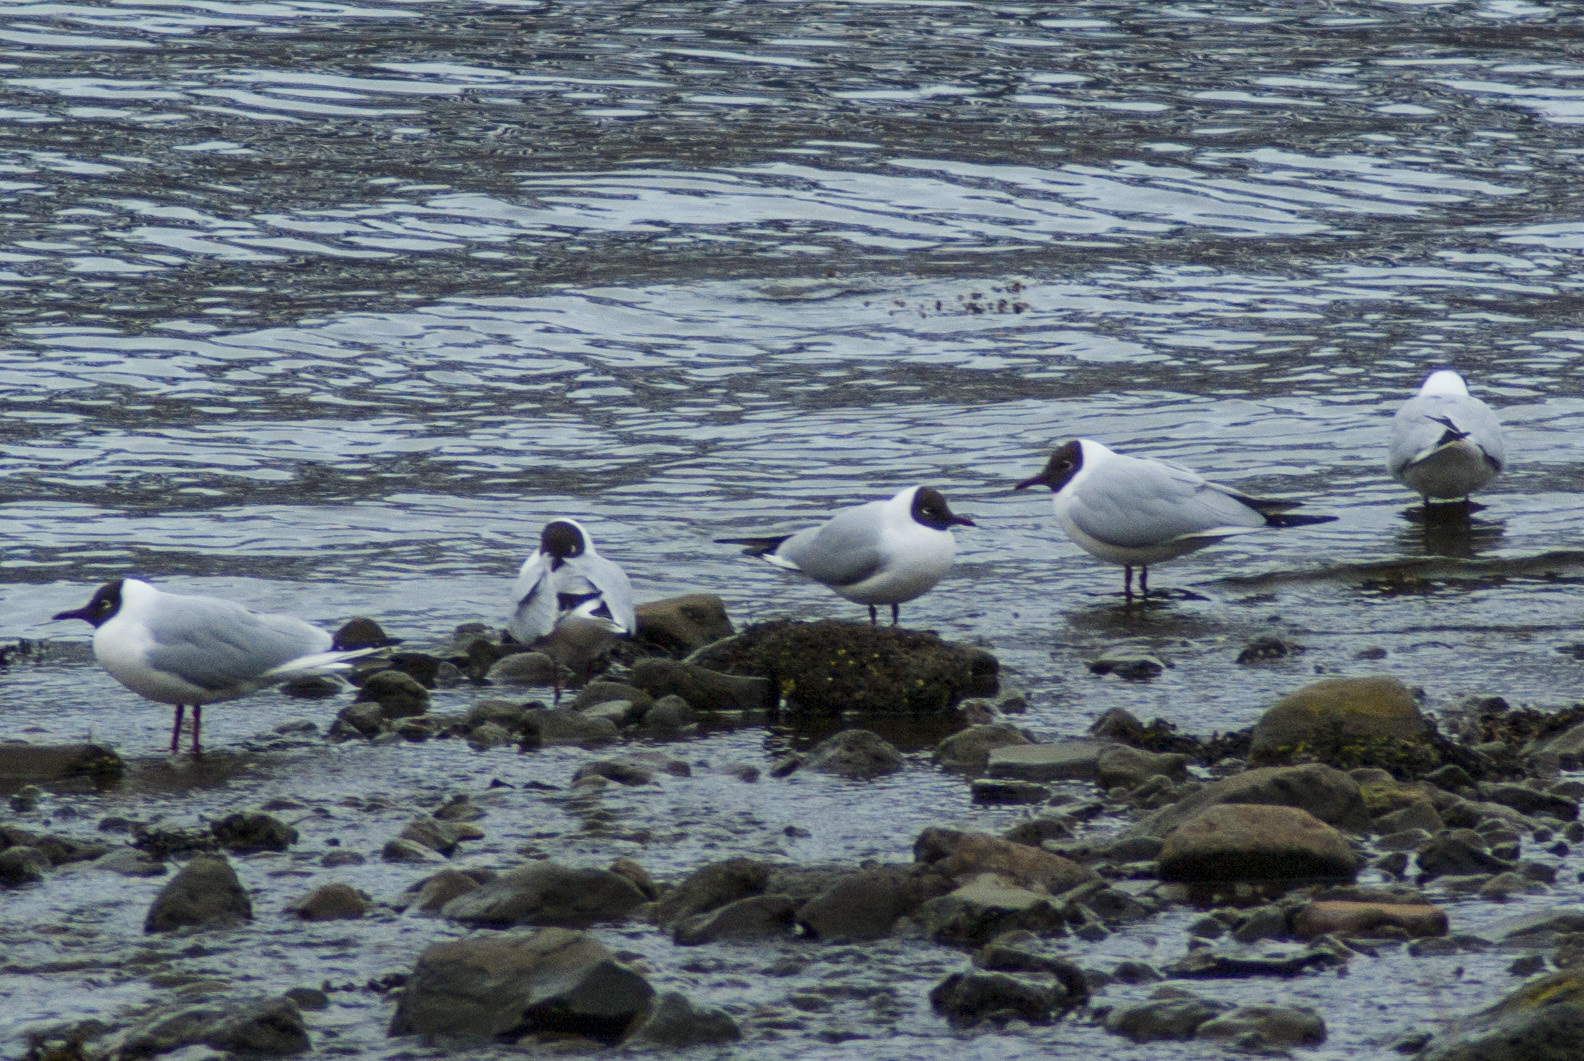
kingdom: Animalia
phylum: Chordata
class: Aves
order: Charadriiformes
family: Laridae
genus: Chroicocephalus
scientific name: Chroicocephalus ridibundus
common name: Black-headed gull
